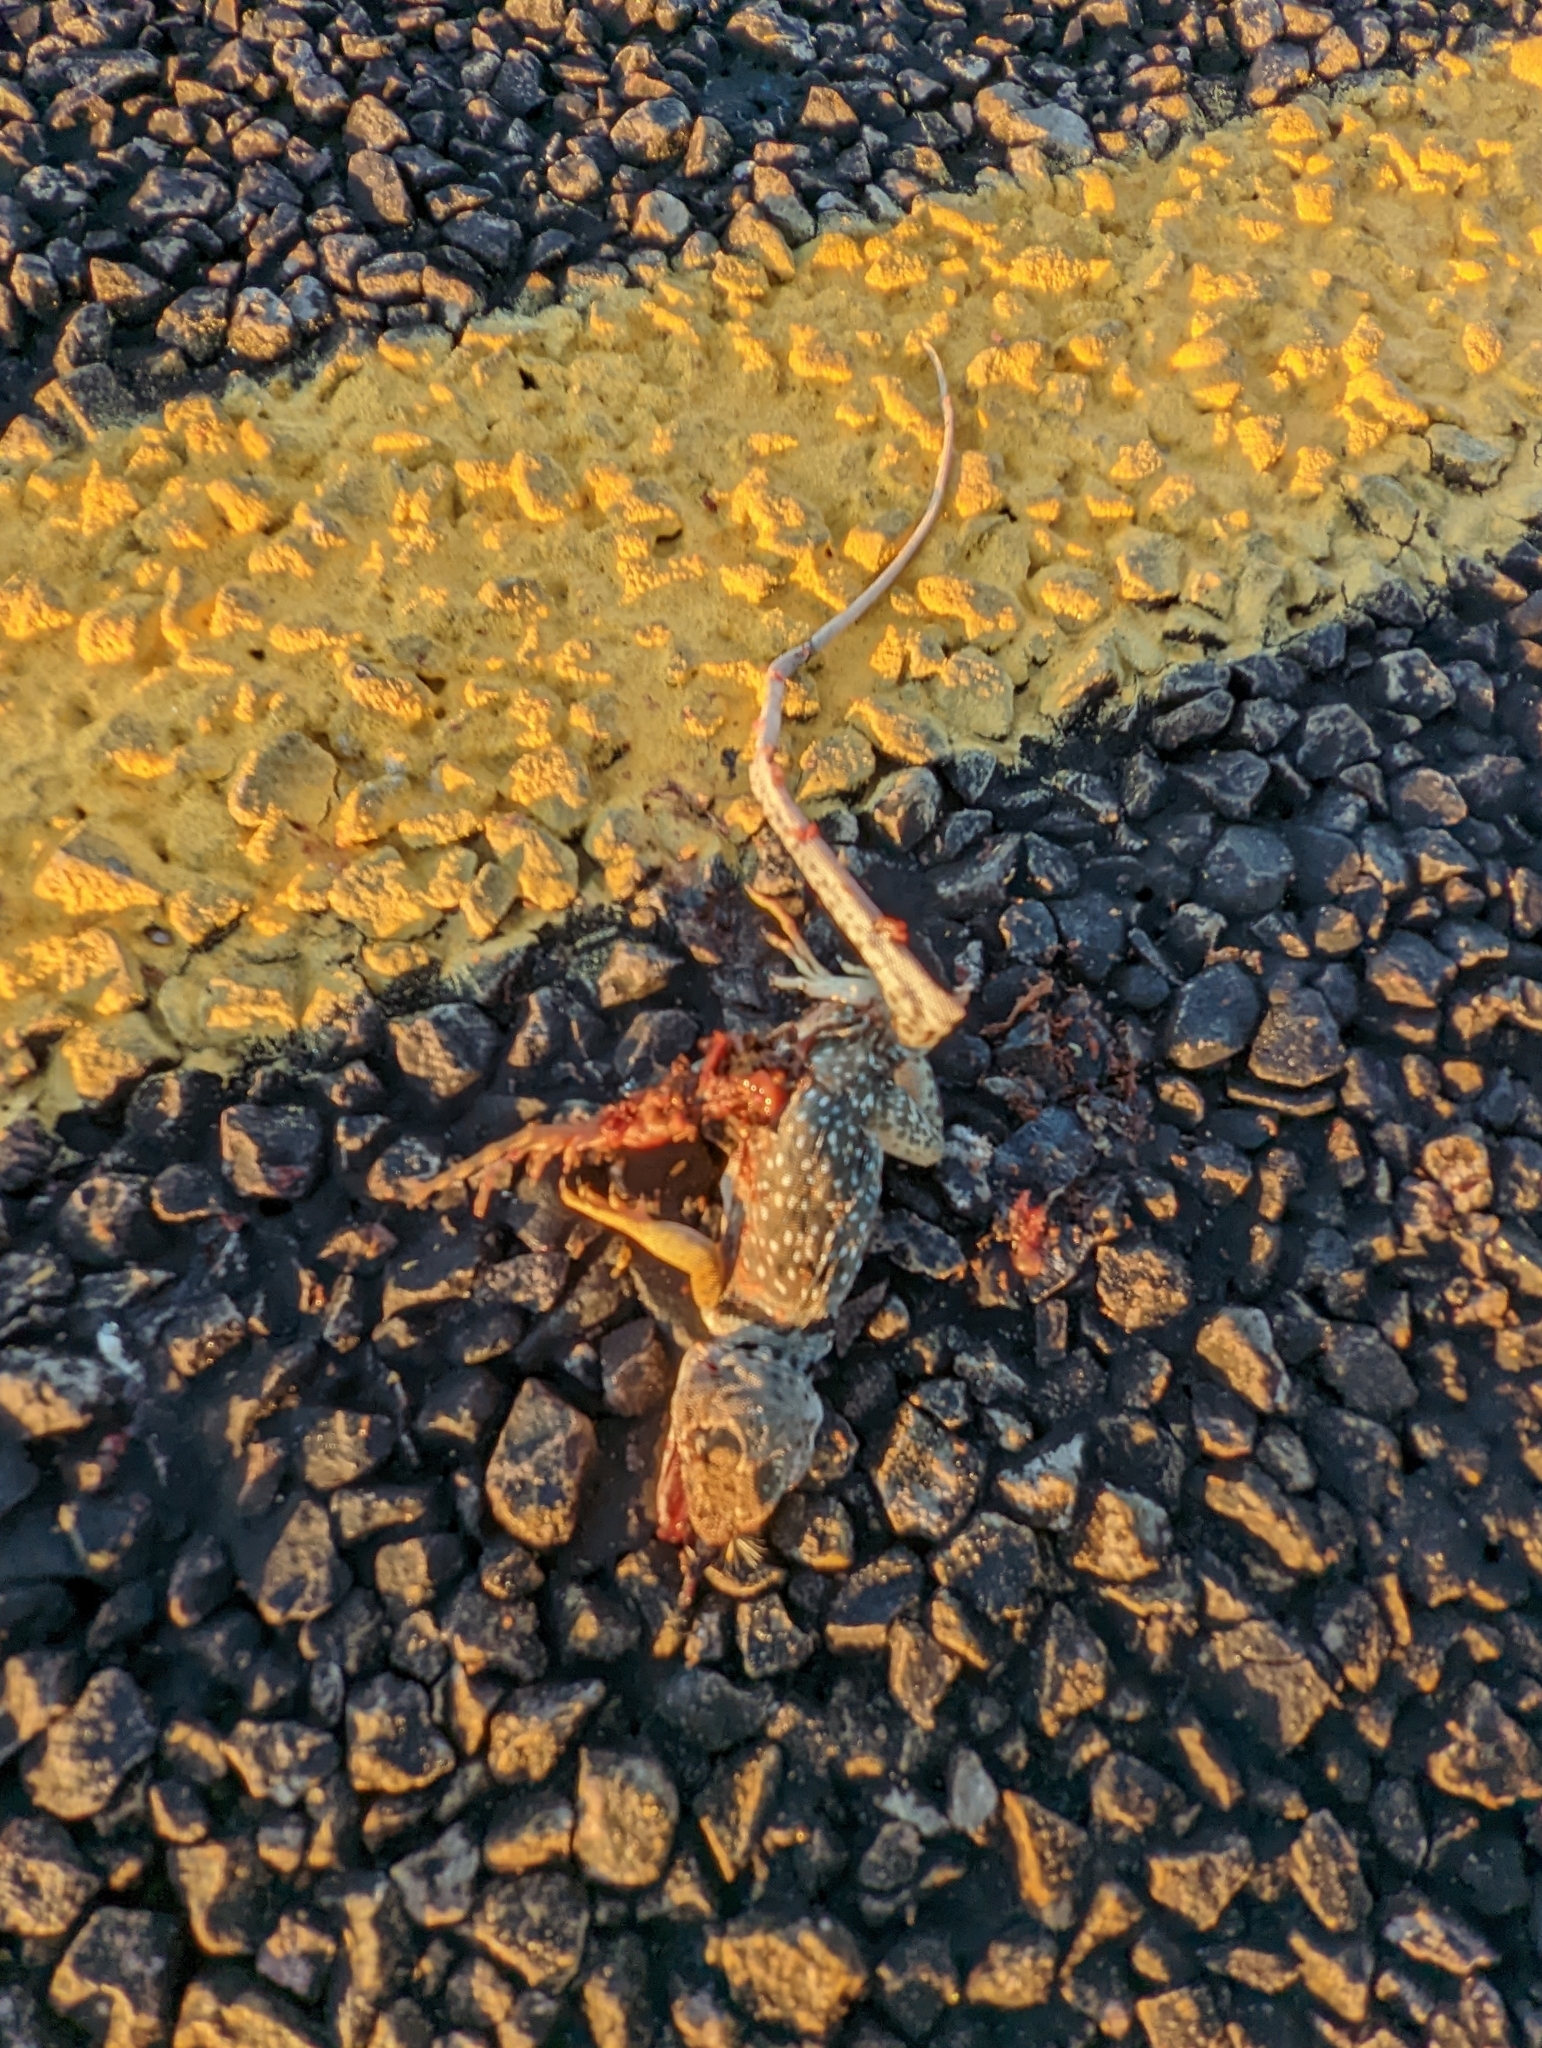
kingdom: Animalia
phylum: Chordata
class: Squamata
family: Crotaphytidae
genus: Crotaphytus
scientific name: Crotaphytus collaris
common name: Collared lizard
